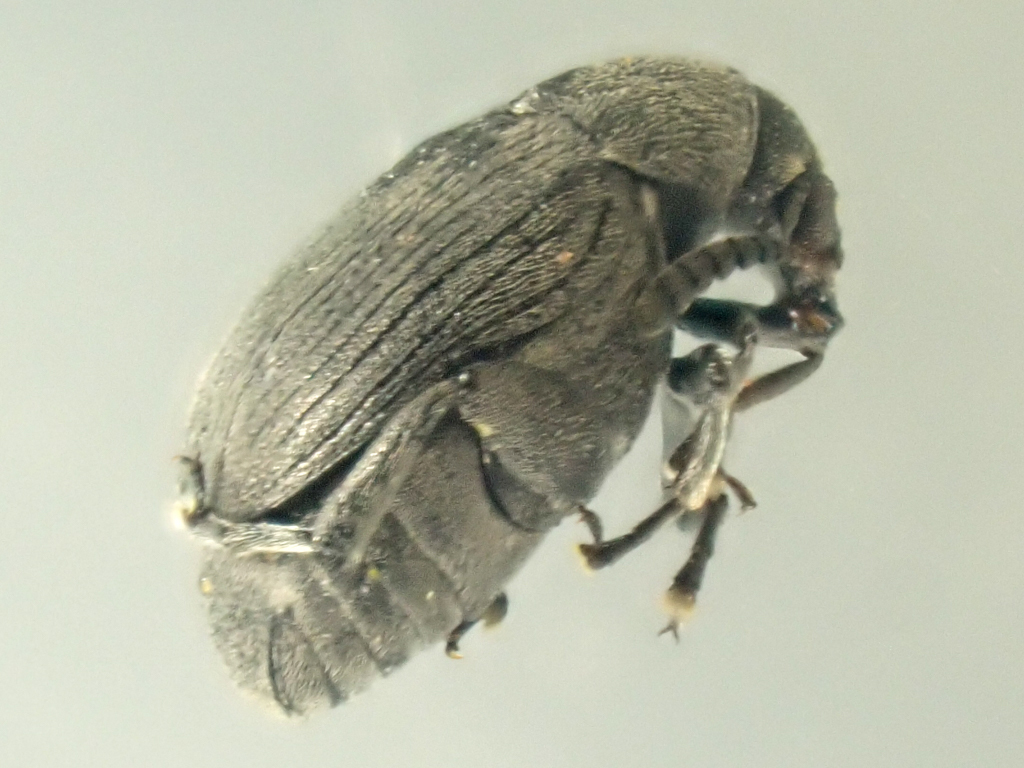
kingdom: Animalia
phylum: Arthropoda
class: Insecta
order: Coleoptera
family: Chrysomelidae
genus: Bruchidius
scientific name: Bruchidius villosus
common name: Scotch broom bruchid
